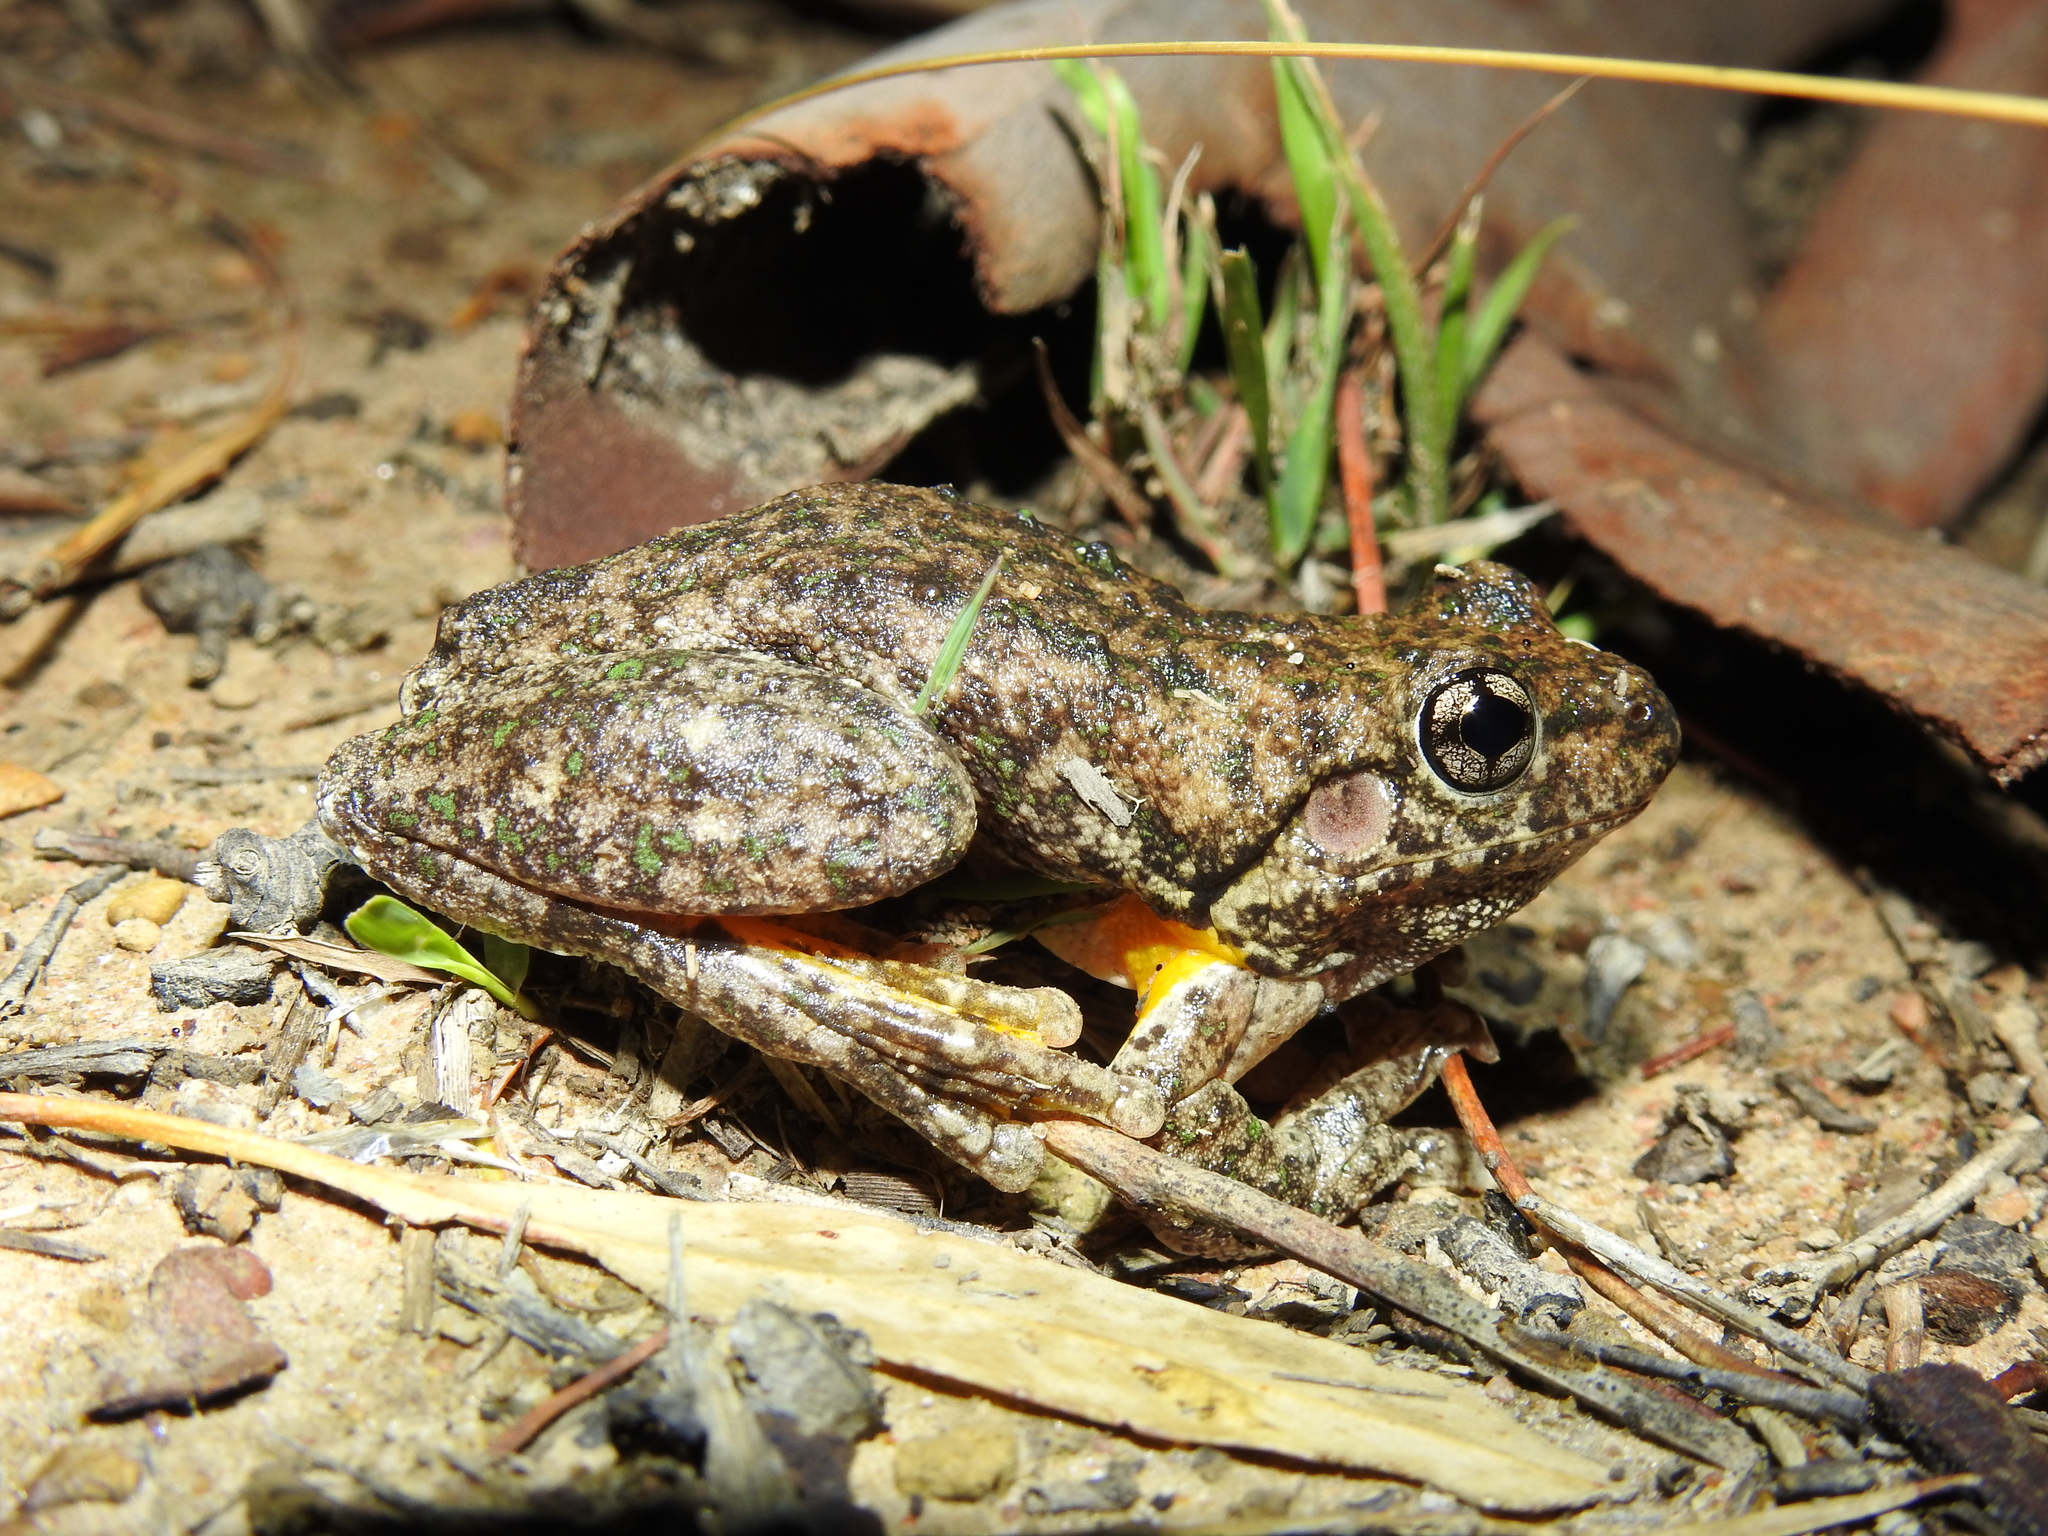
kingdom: Animalia
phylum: Chordata
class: Amphibia
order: Anura
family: Pelodryadidae
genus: Litoria
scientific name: Litoria peronii
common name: Emerald spotted treefrog
